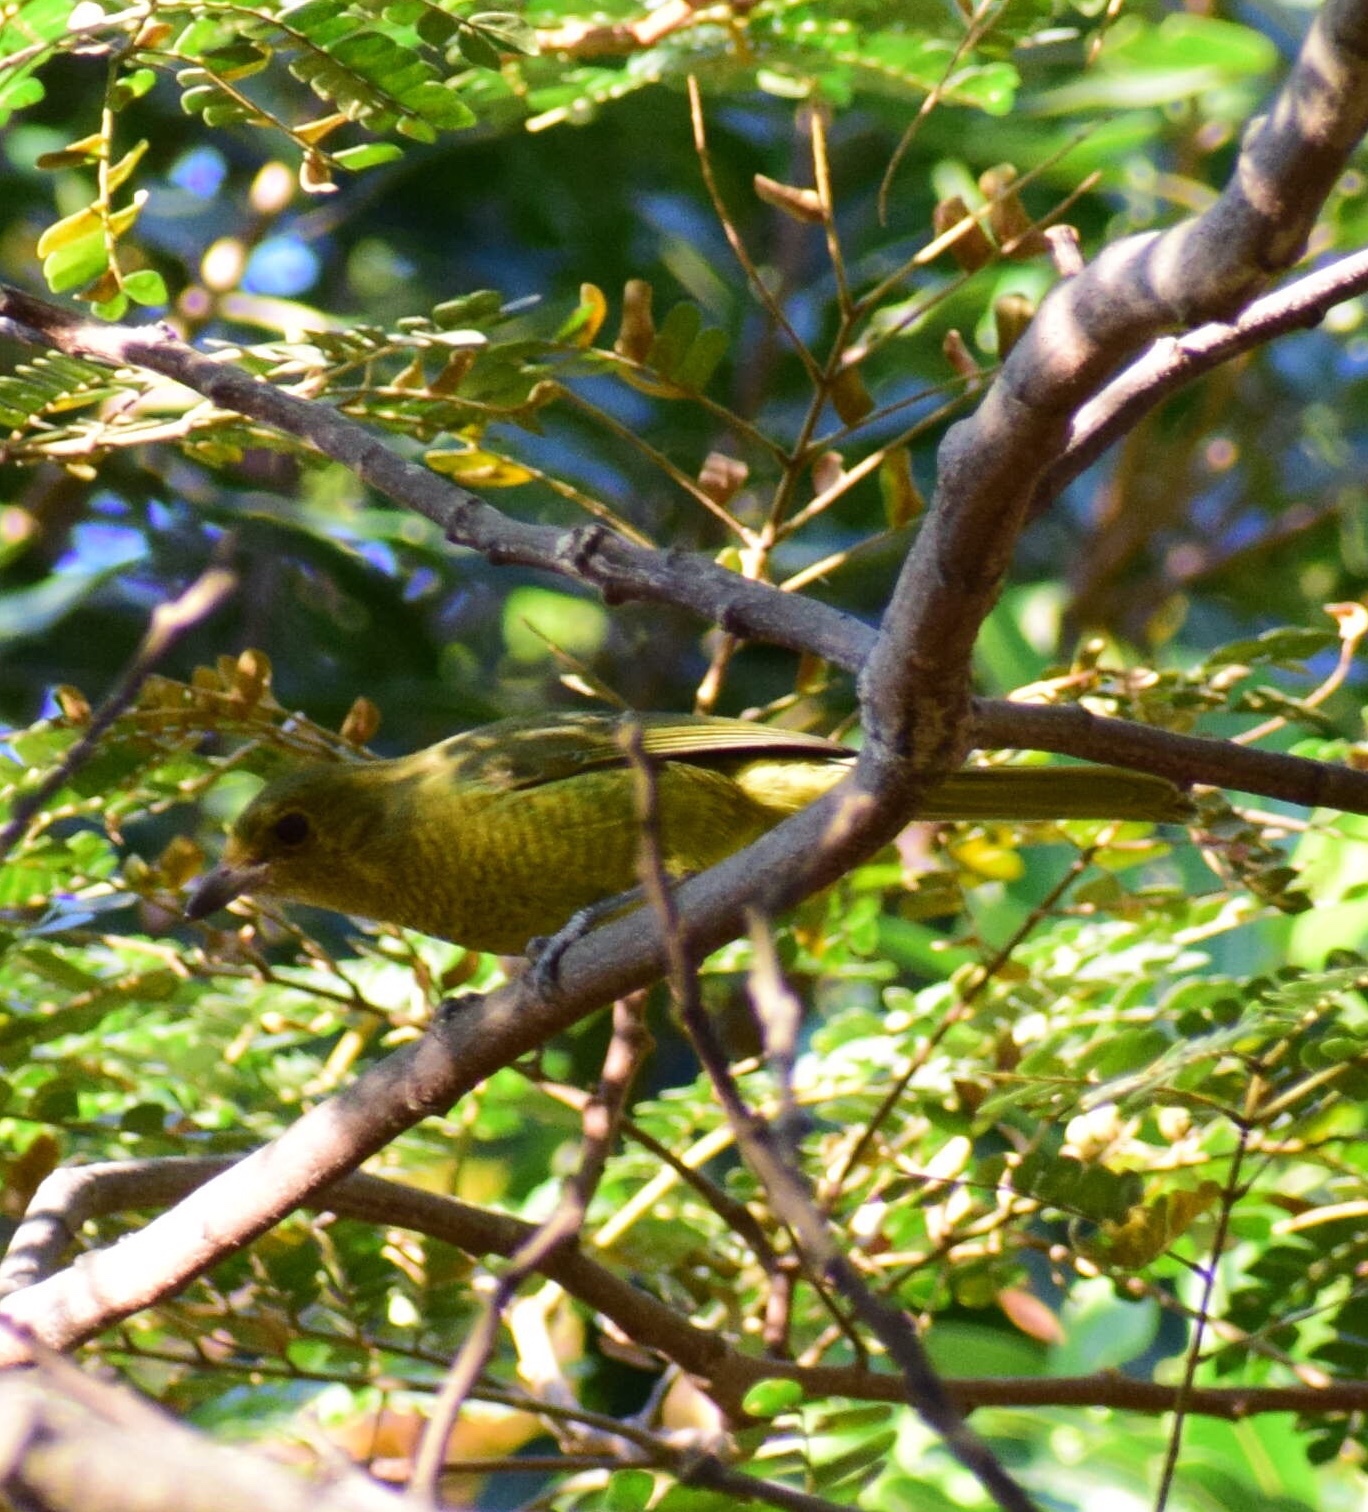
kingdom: Animalia
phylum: Chordata
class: Aves
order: Passeriformes
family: Malaconotidae
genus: Chlorophoneus
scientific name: Chlorophoneus olivaceus
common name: Olive bushshrike
